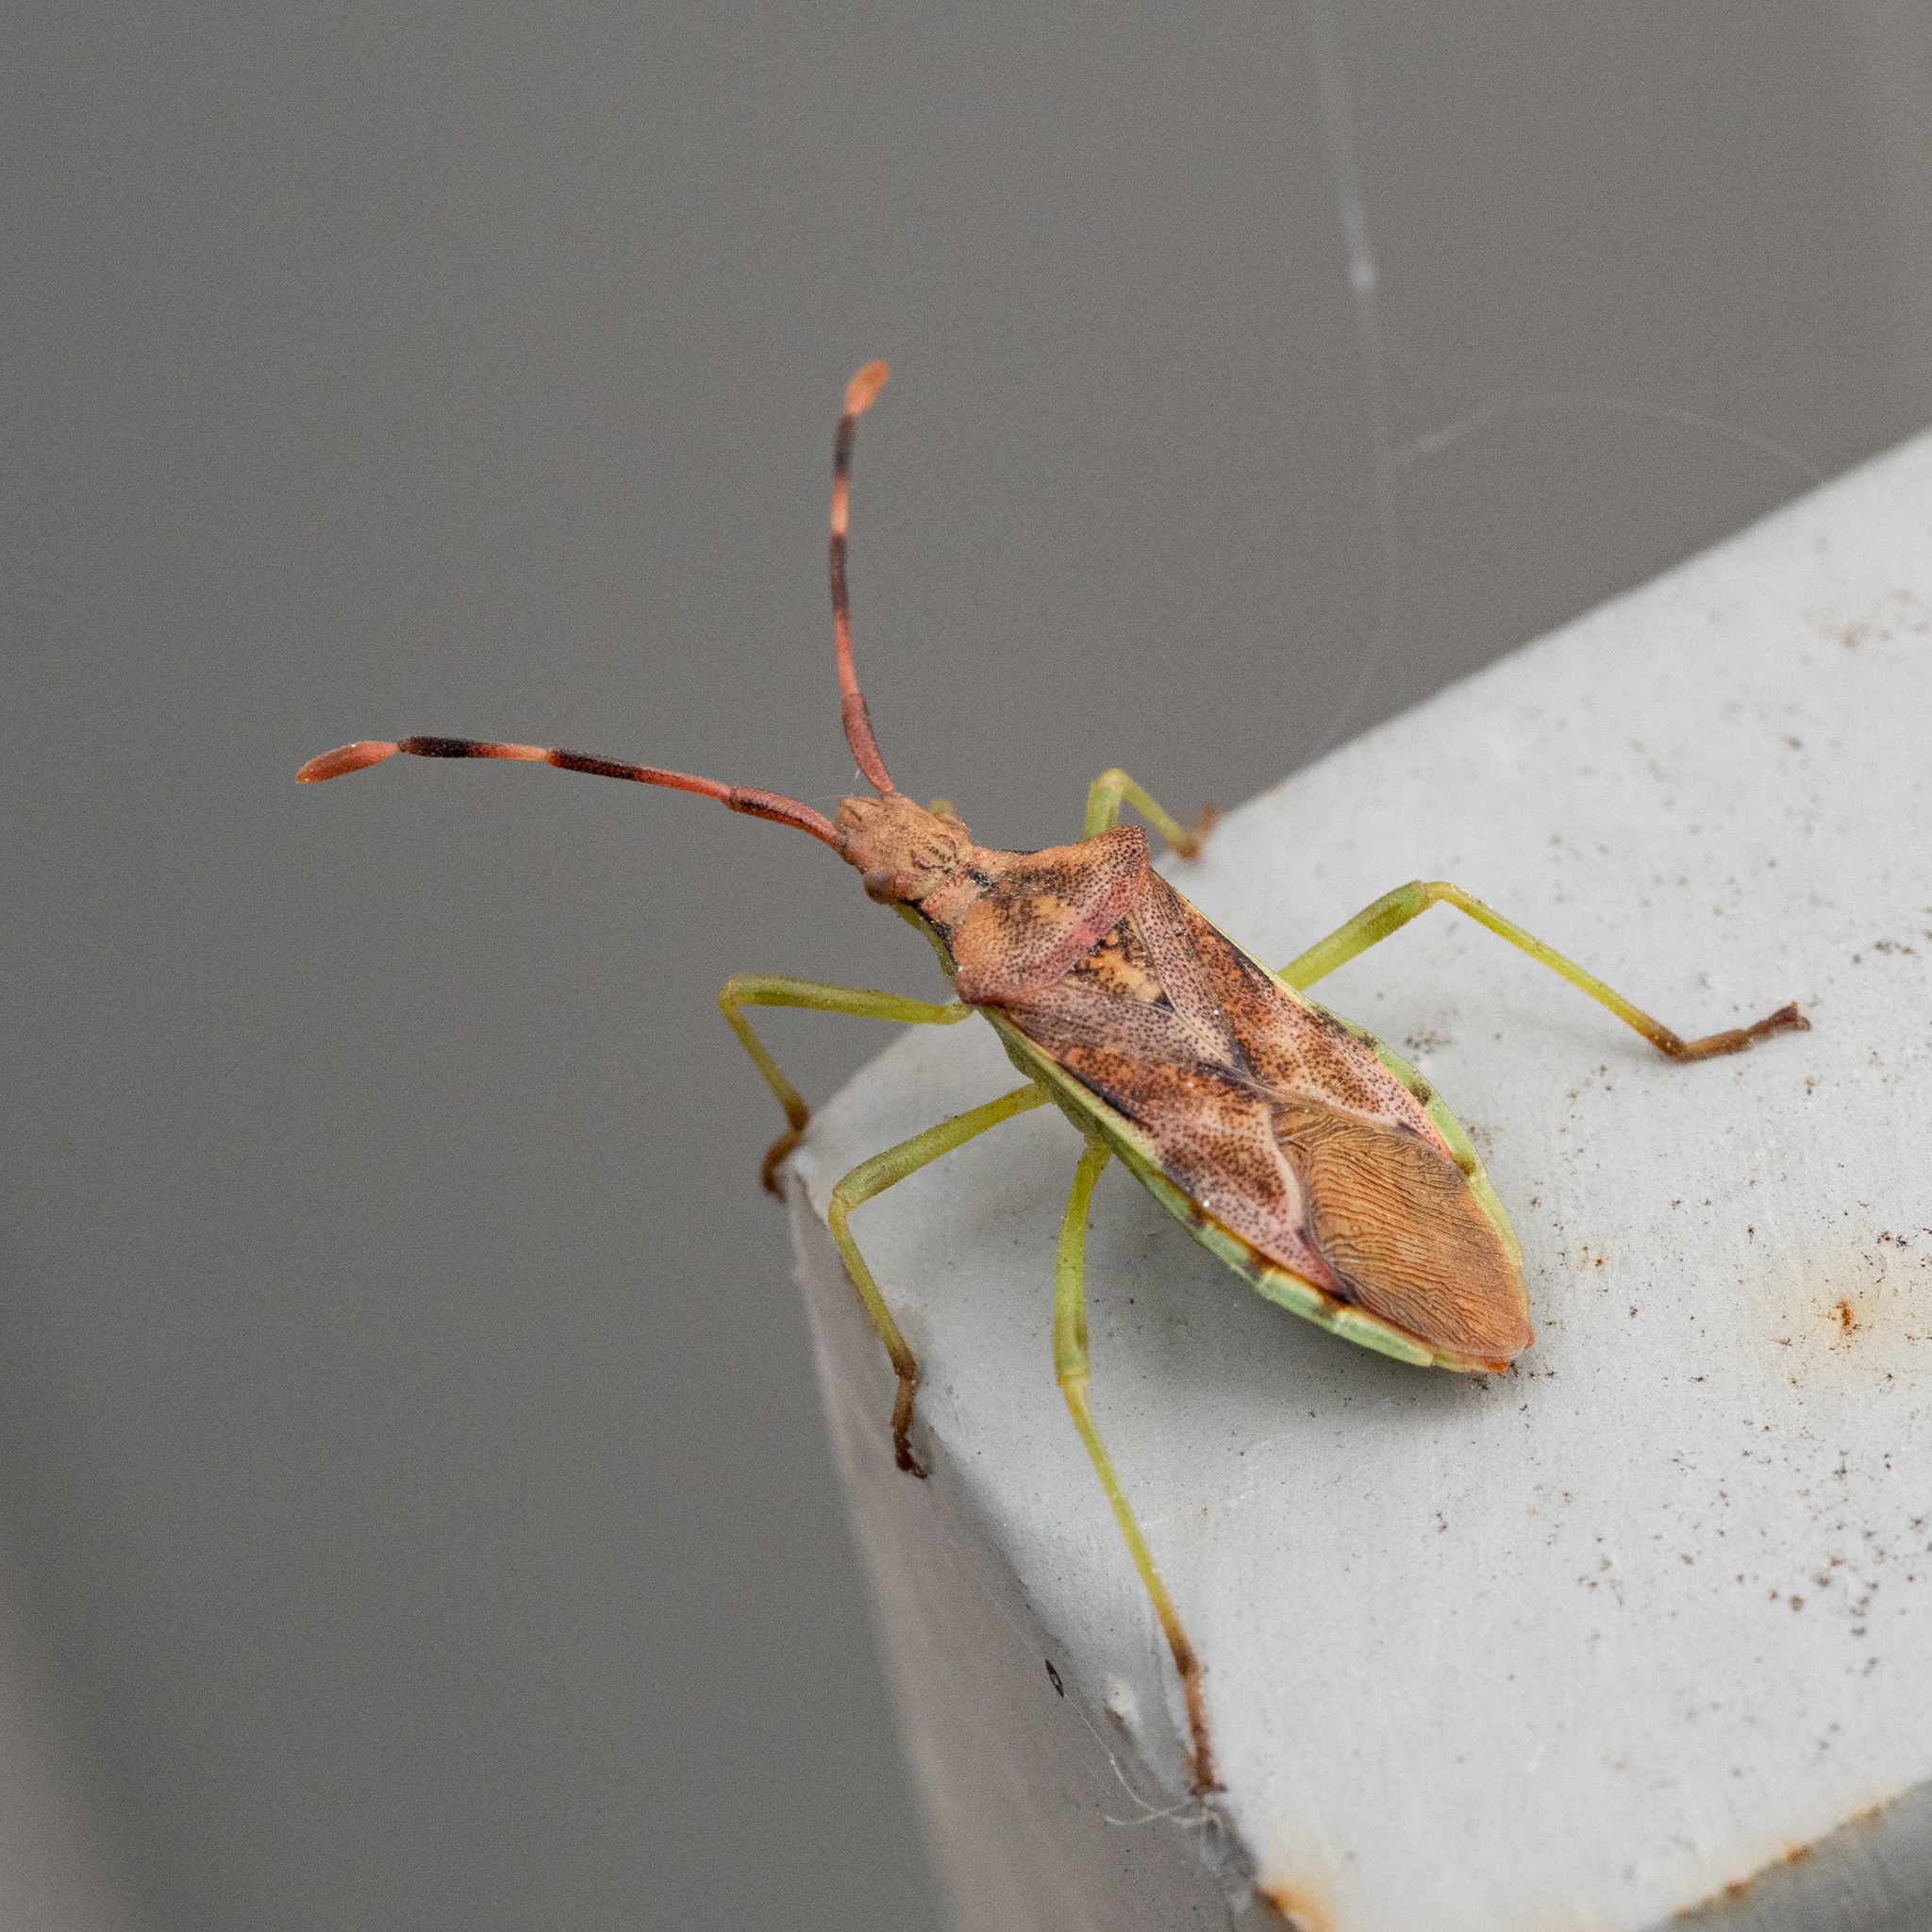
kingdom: Animalia
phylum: Arthropoda
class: Insecta
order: Hemiptera
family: Coreidae
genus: Gonocerus
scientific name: Gonocerus juniperi
